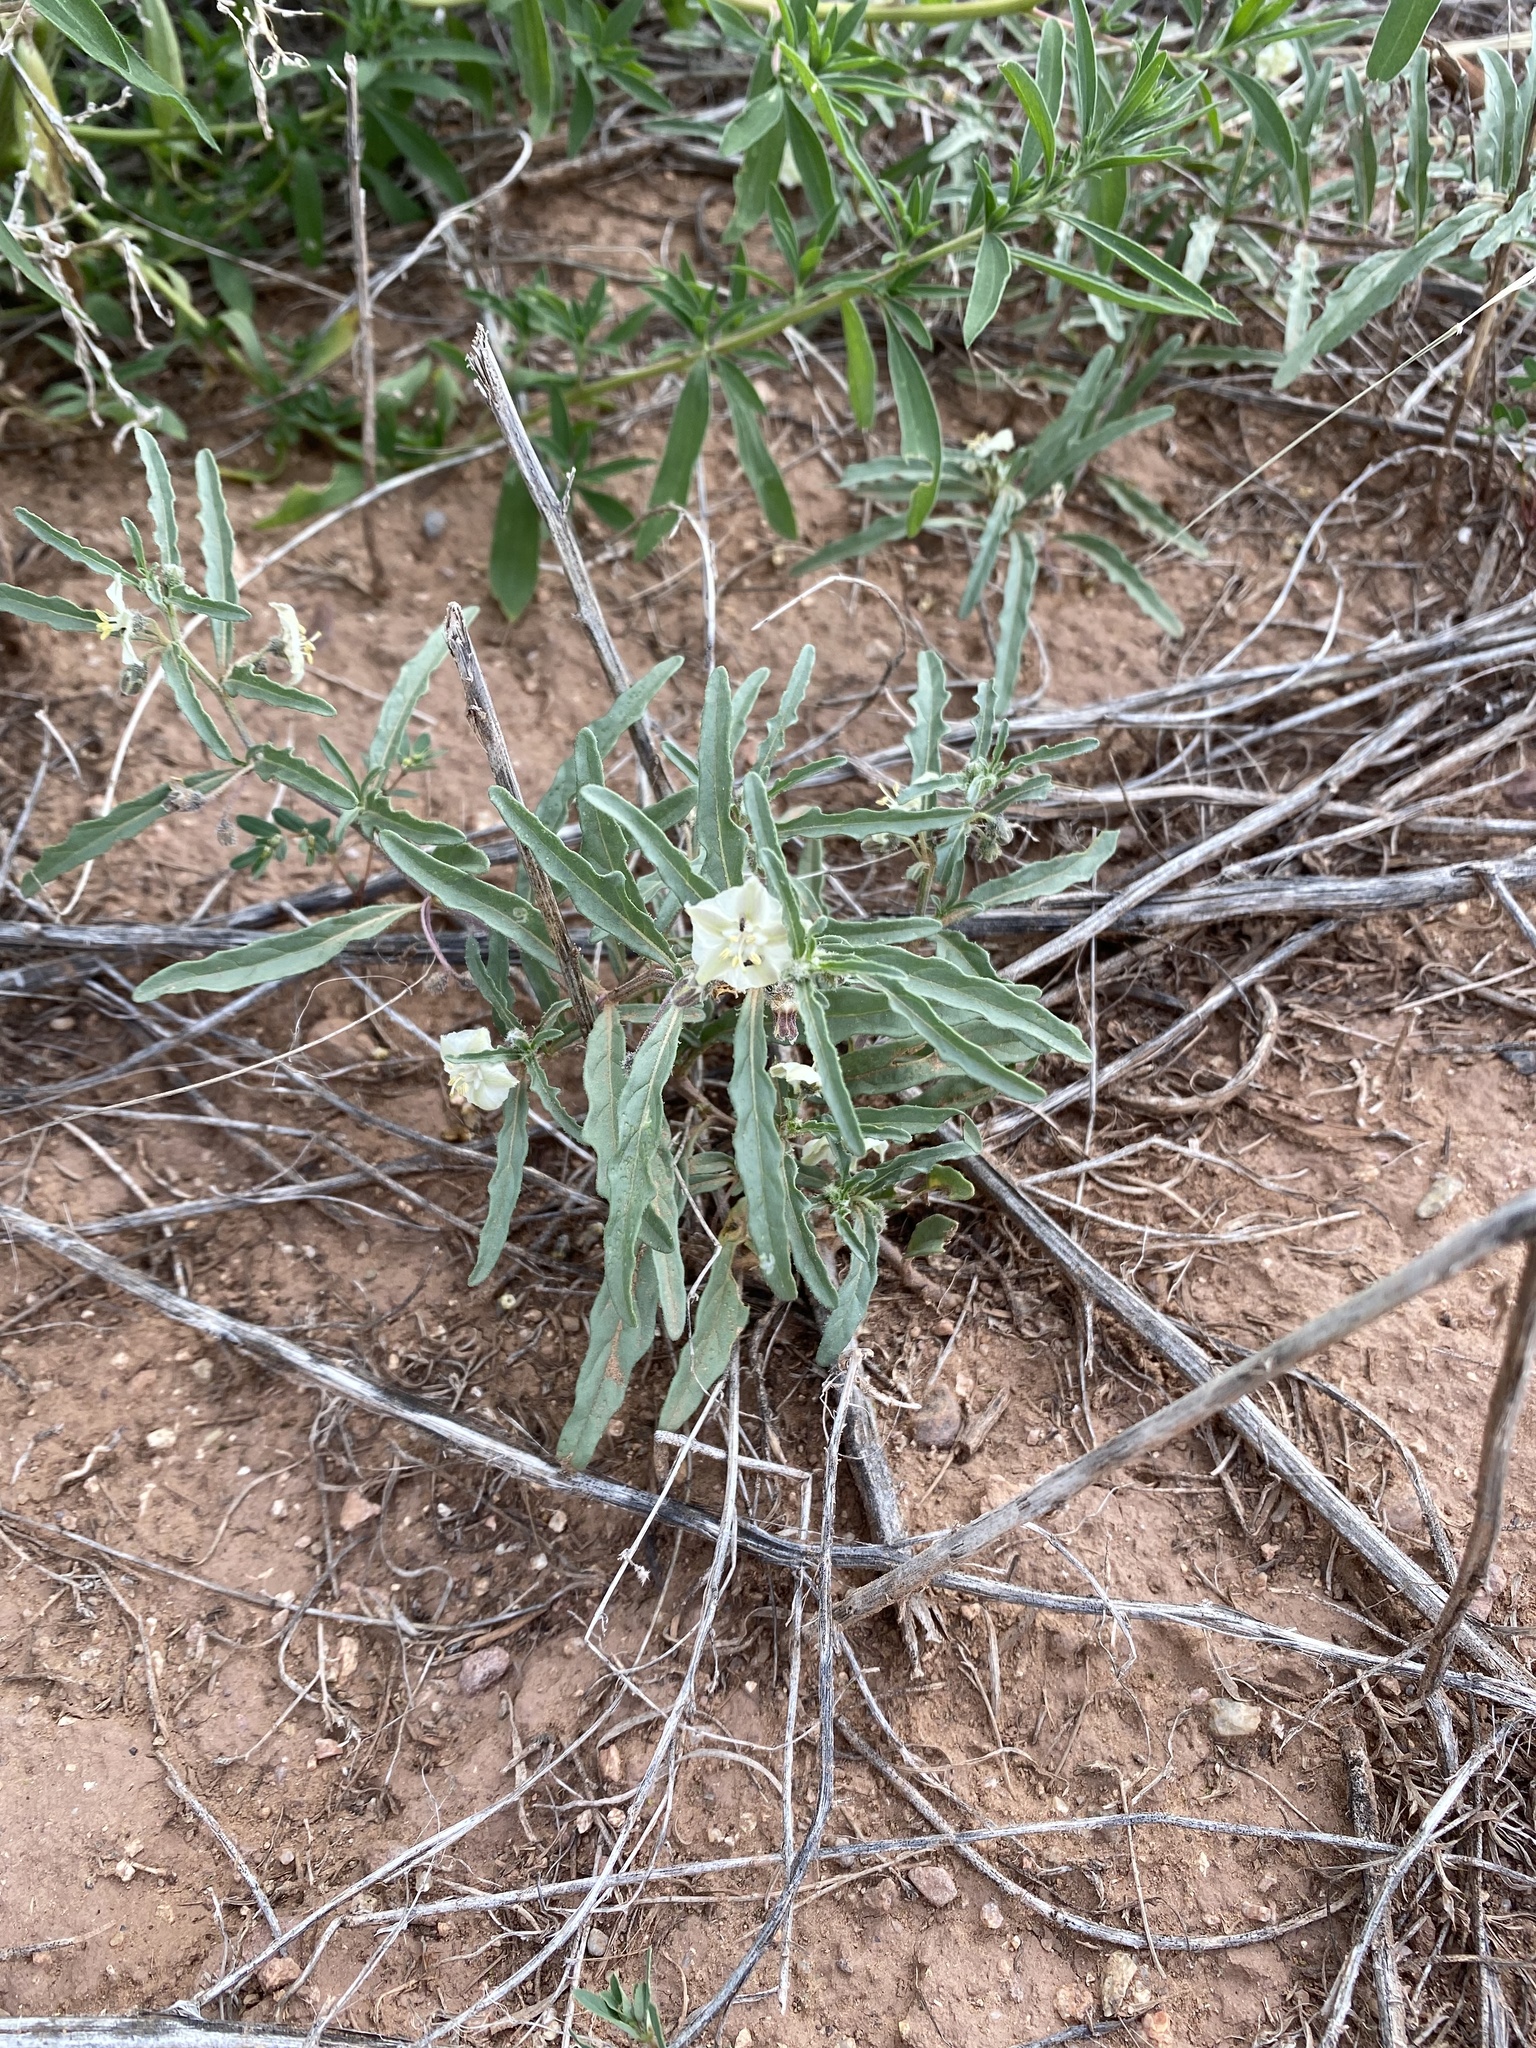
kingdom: Plantae
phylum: Tracheophyta
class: Magnoliopsida
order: Solanales
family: Solanaceae
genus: Chamaesaracha
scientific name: Chamaesaracha coronopus
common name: Smooth chamaesaracha
